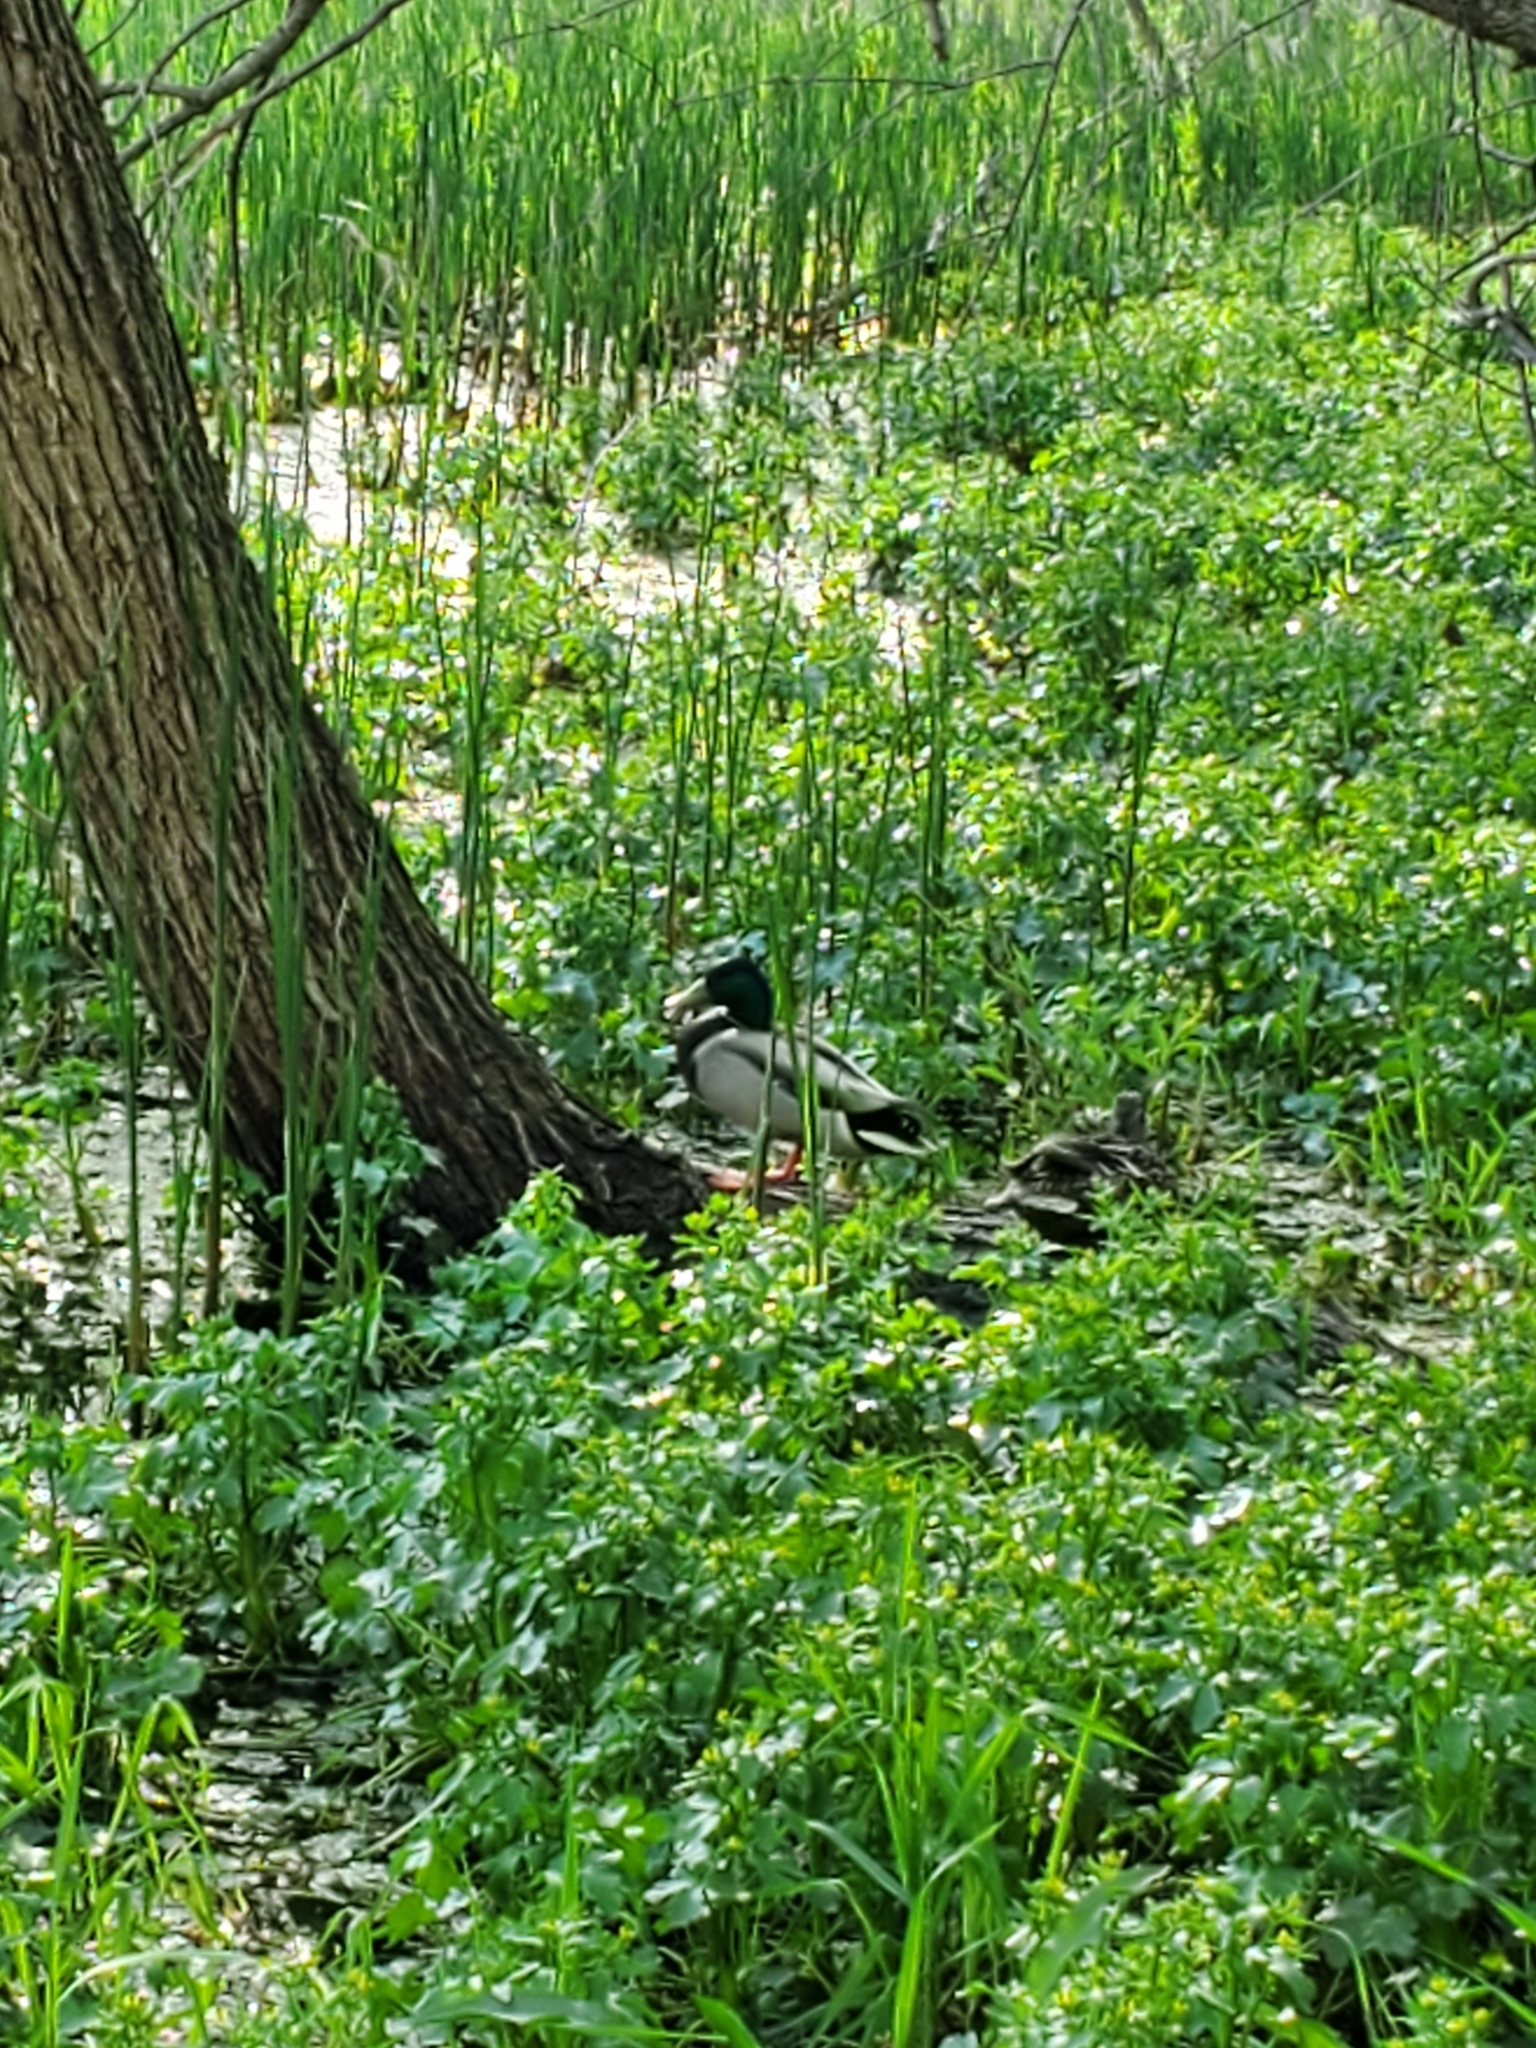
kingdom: Animalia
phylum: Chordata
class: Aves
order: Anseriformes
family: Anatidae
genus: Anas
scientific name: Anas platyrhynchos
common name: Mallard
